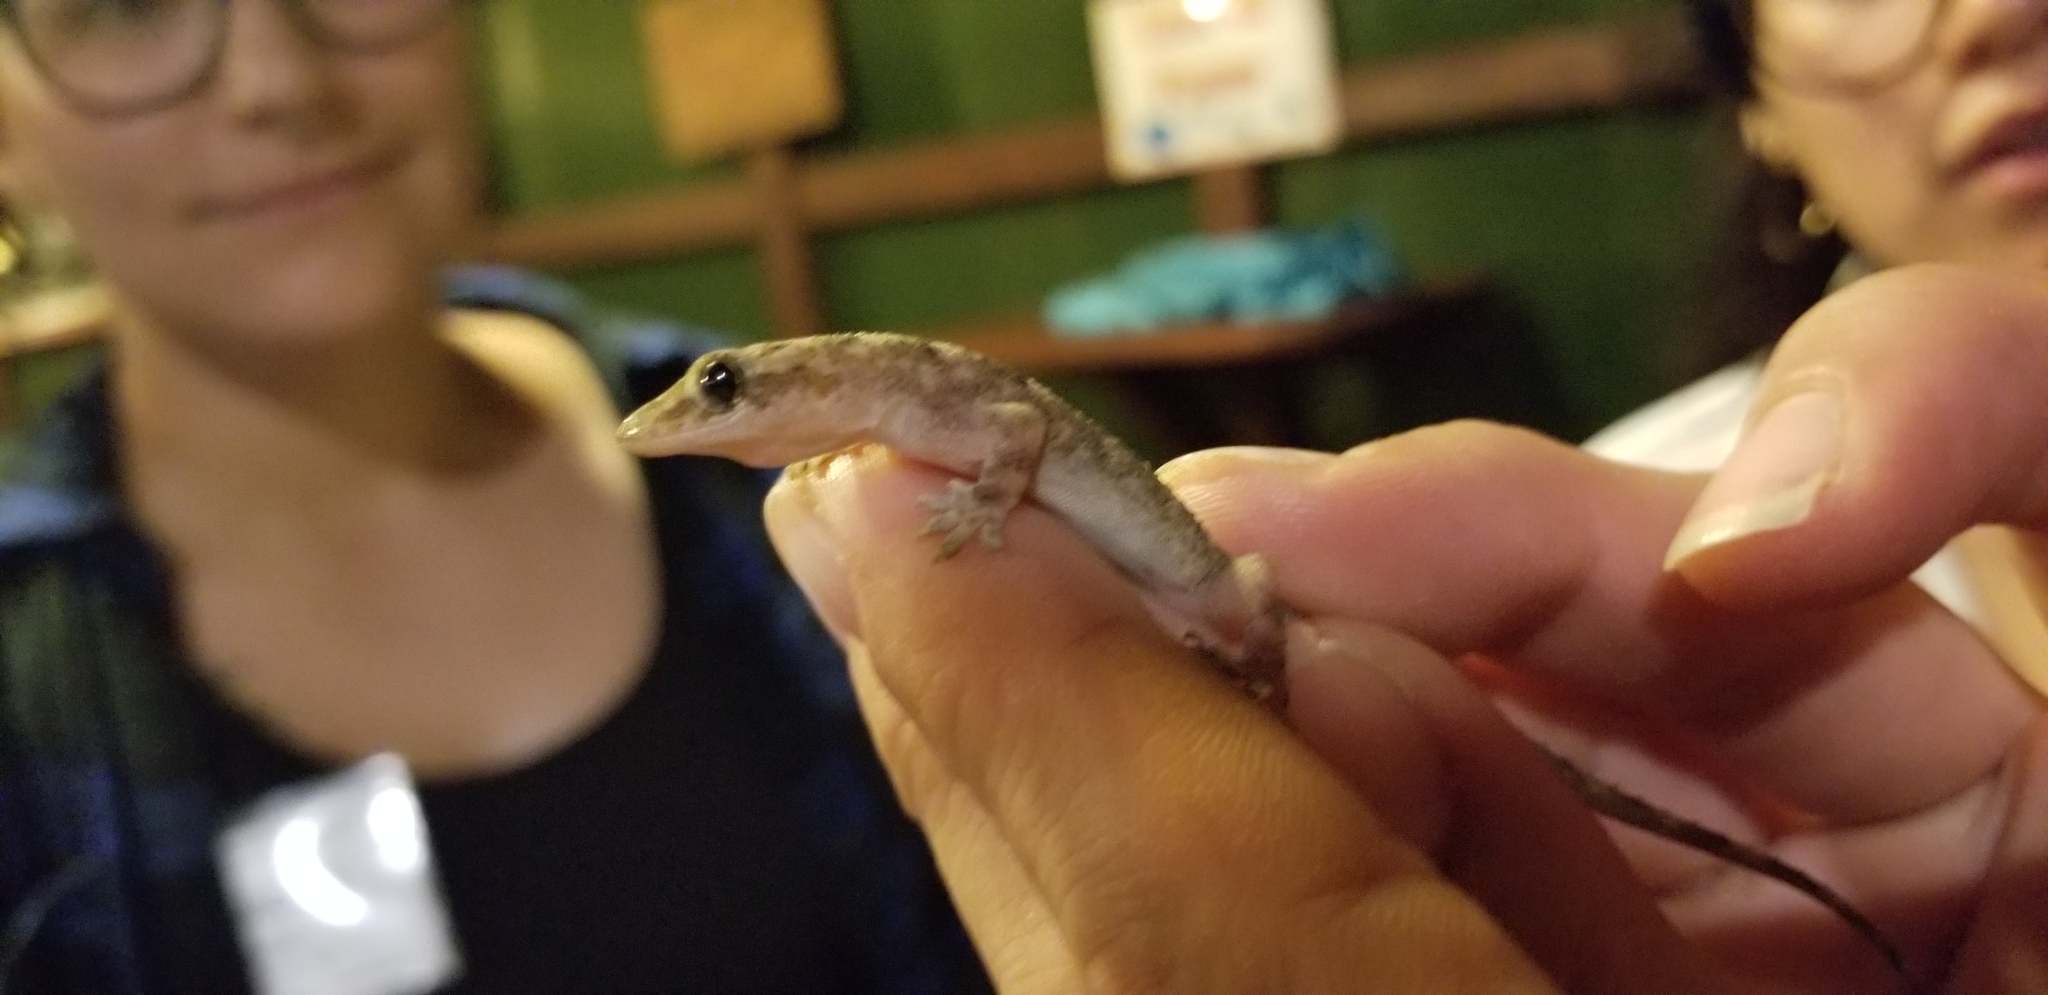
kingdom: Animalia
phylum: Chordata
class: Squamata
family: Gekkonidae
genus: Hemidactylus
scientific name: Hemidactylus mabouia
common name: House gecko
